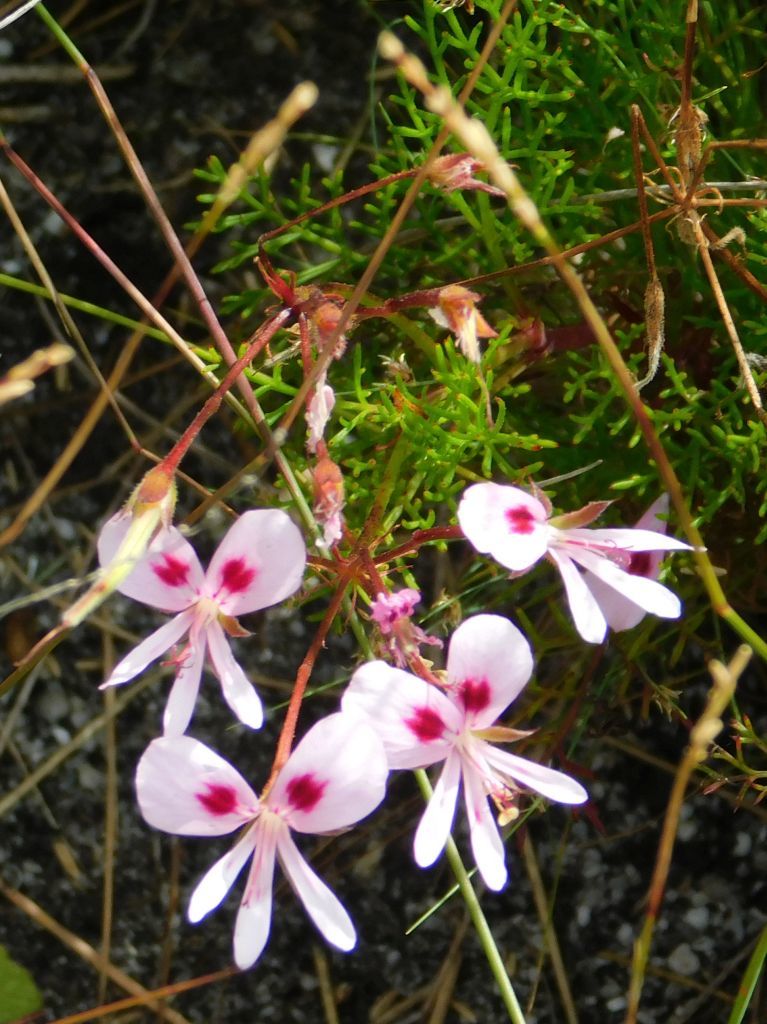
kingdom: Plantae
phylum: Tracheophyta
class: Magnoliopsida
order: Geraniales
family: Geraniaceae
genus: Pelargonium
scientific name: Pelargonium artemisiifolium
